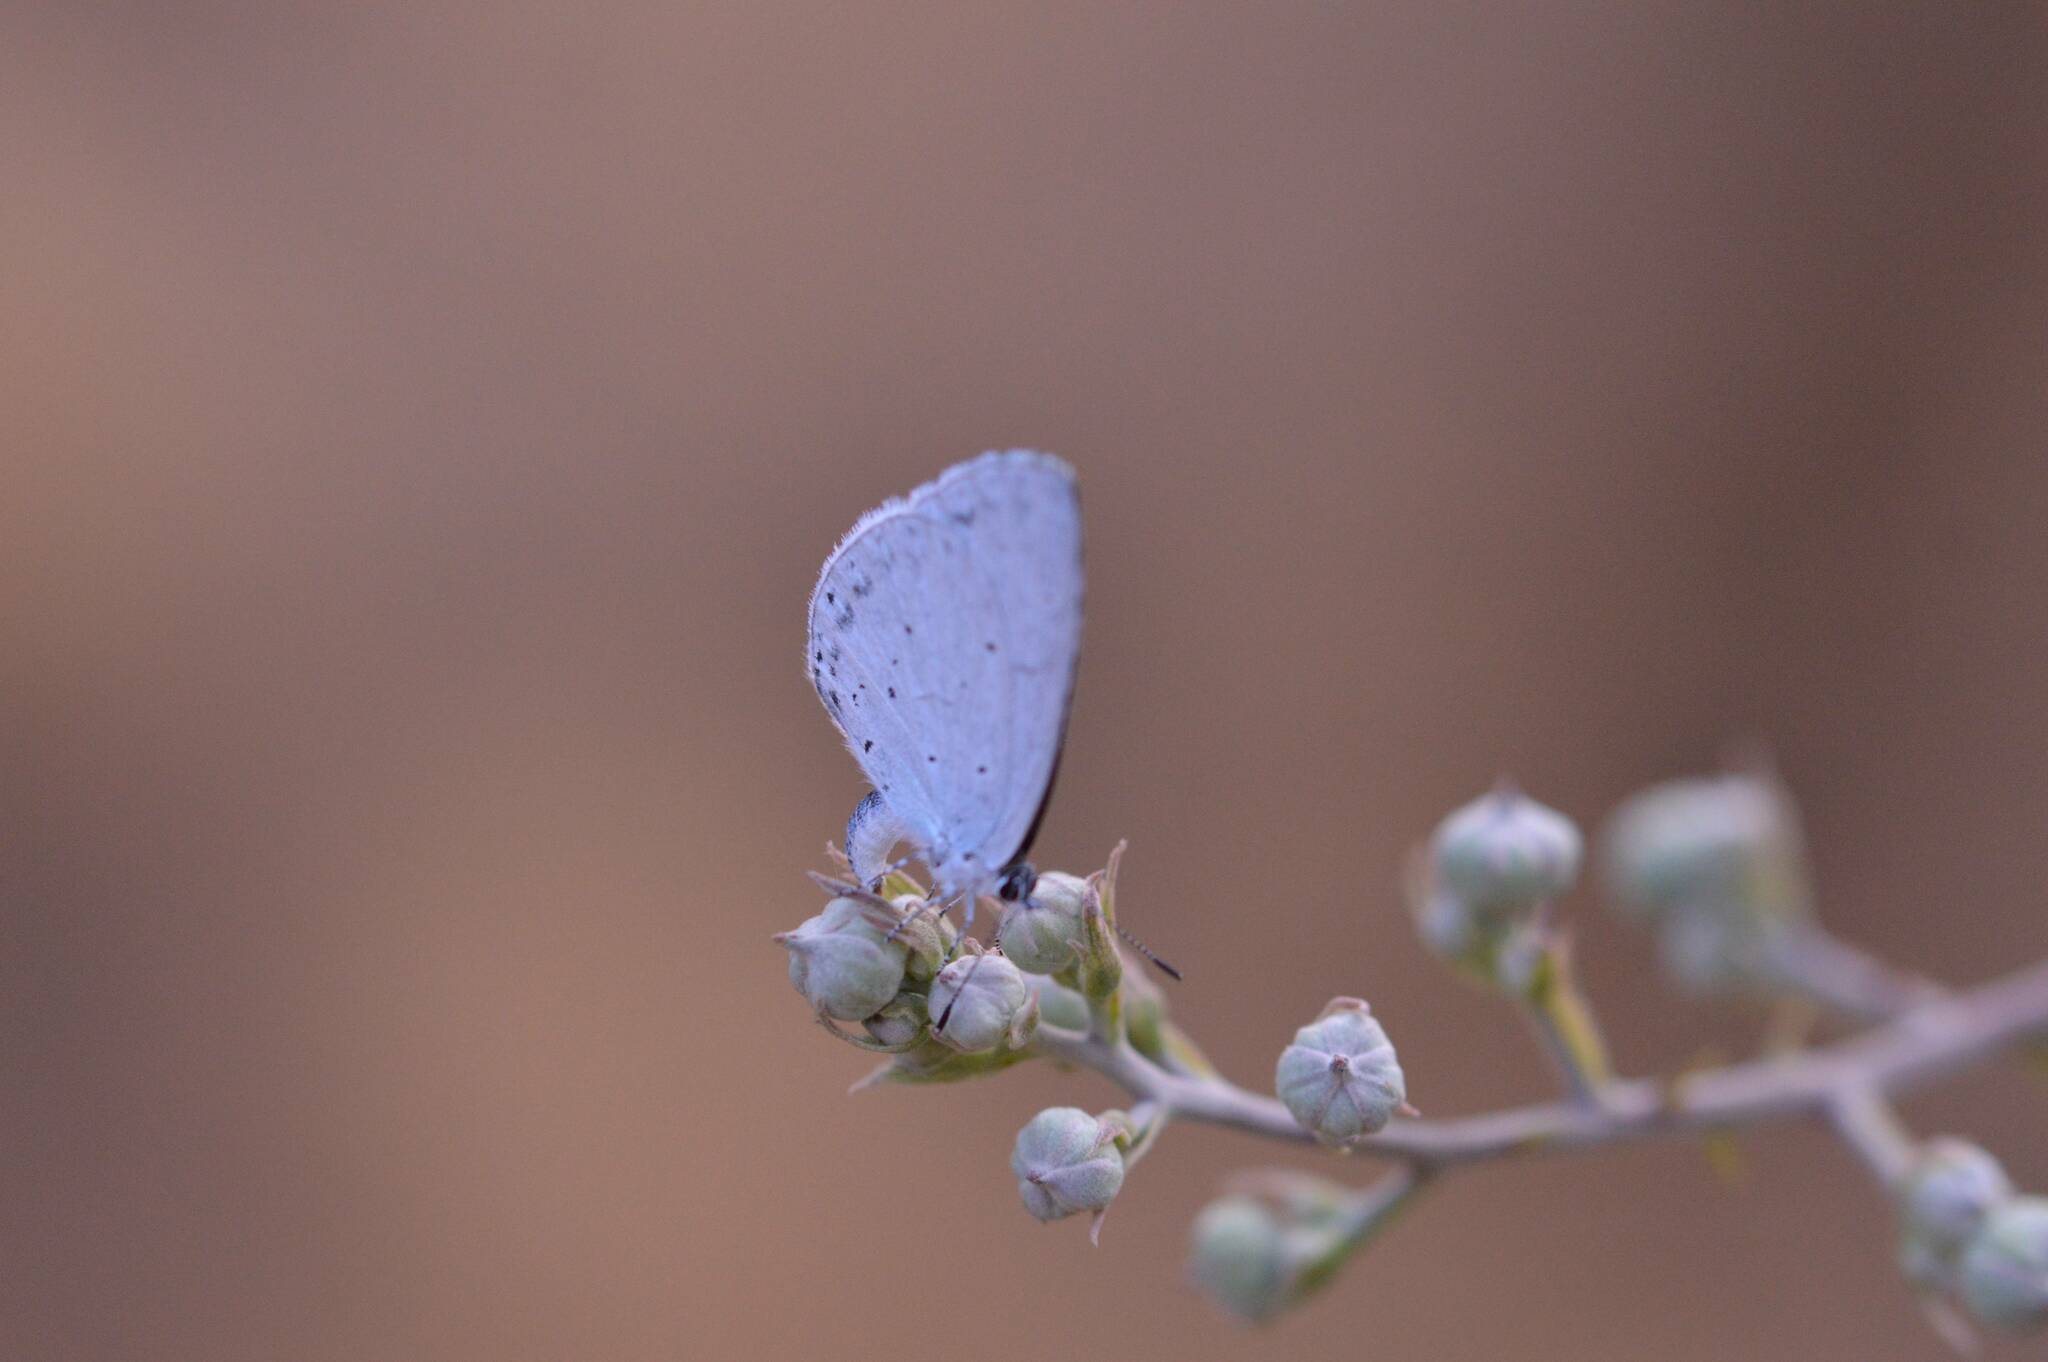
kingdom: Animalia
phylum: Arthropoda
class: Insecta
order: Lepidoptera
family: Lycaenidae
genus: Celastrina
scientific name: Celastrina argiolus
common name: Holly blue
